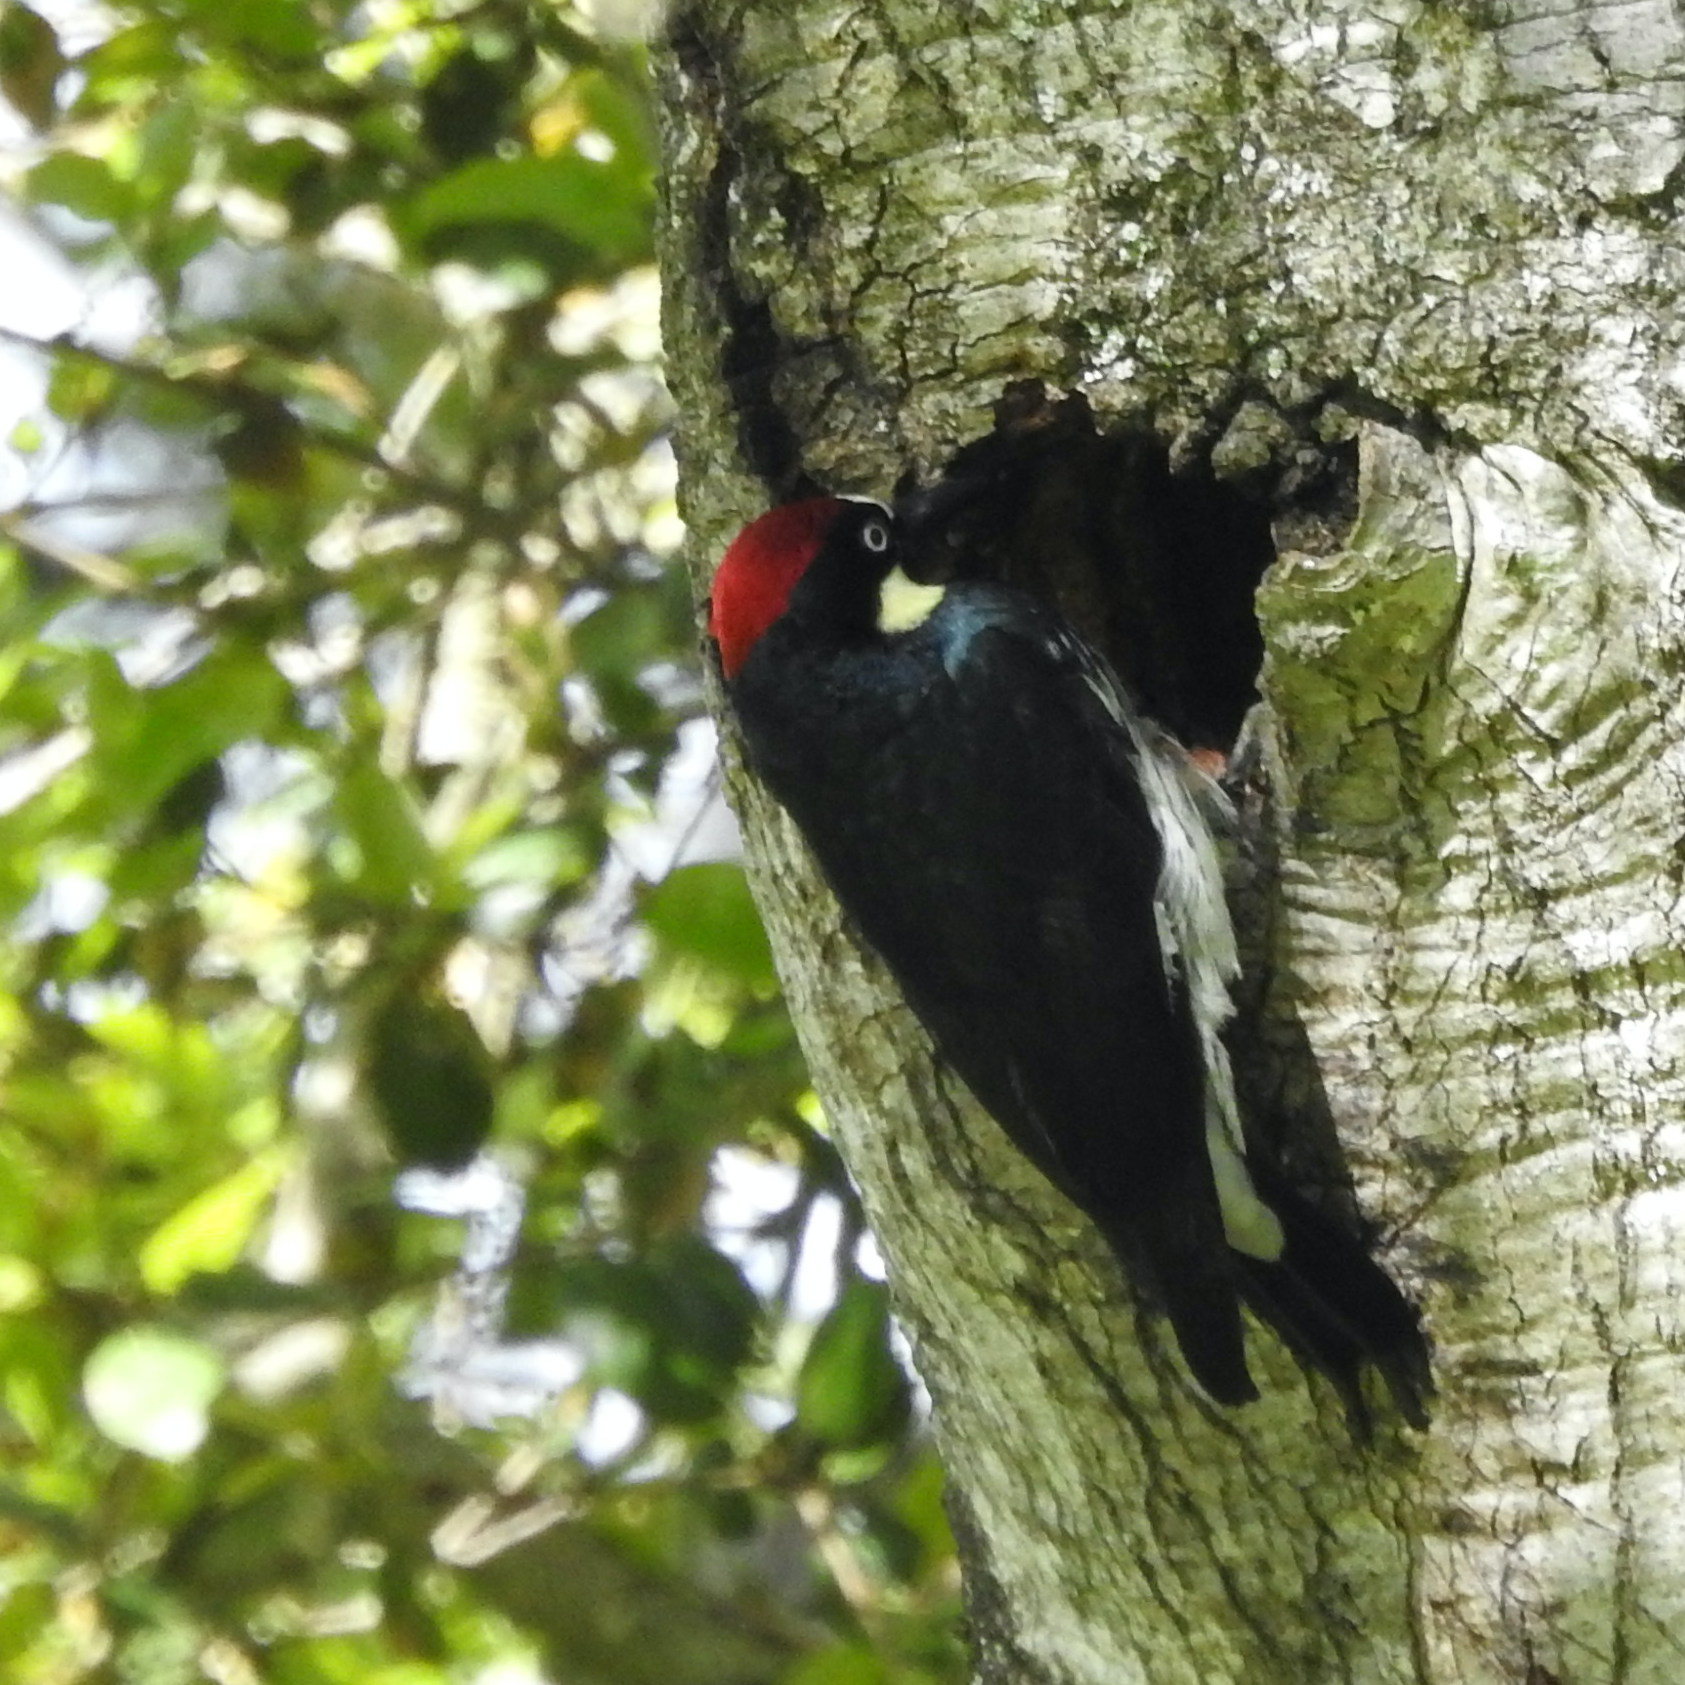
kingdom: Animalia
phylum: Chordata
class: Aves
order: Piciformes
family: Picidae
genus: Melanerpes
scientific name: Melanerpes formicivorus
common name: Acorn woodpecker
